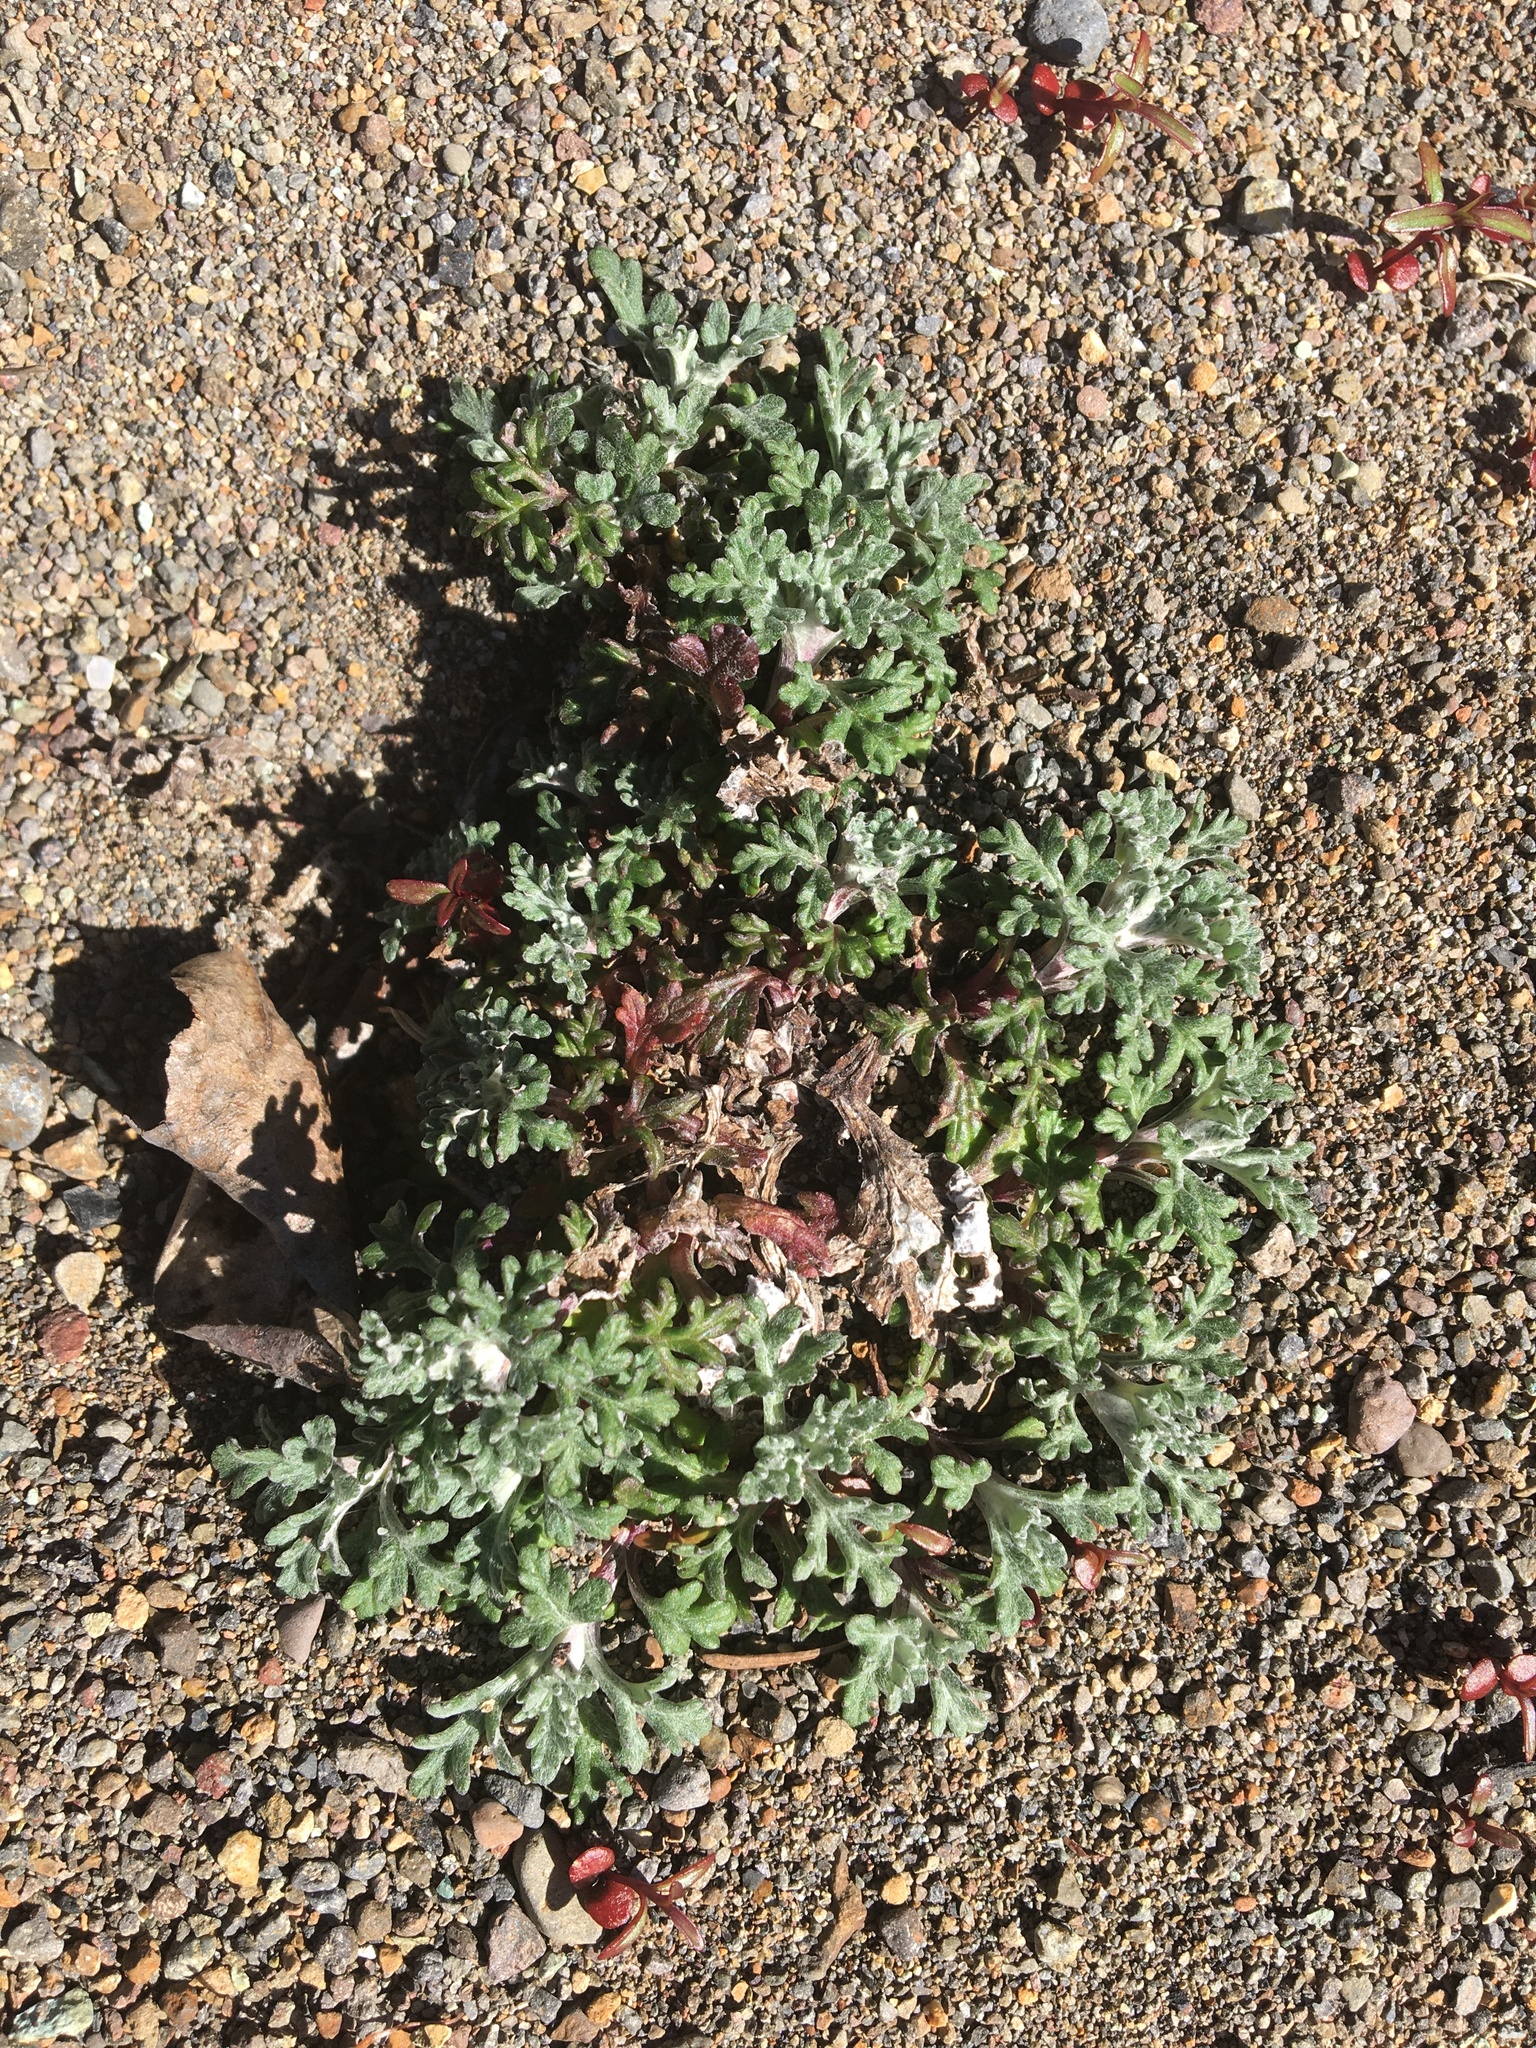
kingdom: Plantae
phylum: Tracheophyta
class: Magnoliopsida
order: Asterales
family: Asteraceae
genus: Eriophyllum
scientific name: Eriophyllum lanatum
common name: Common woolly-sunflower
